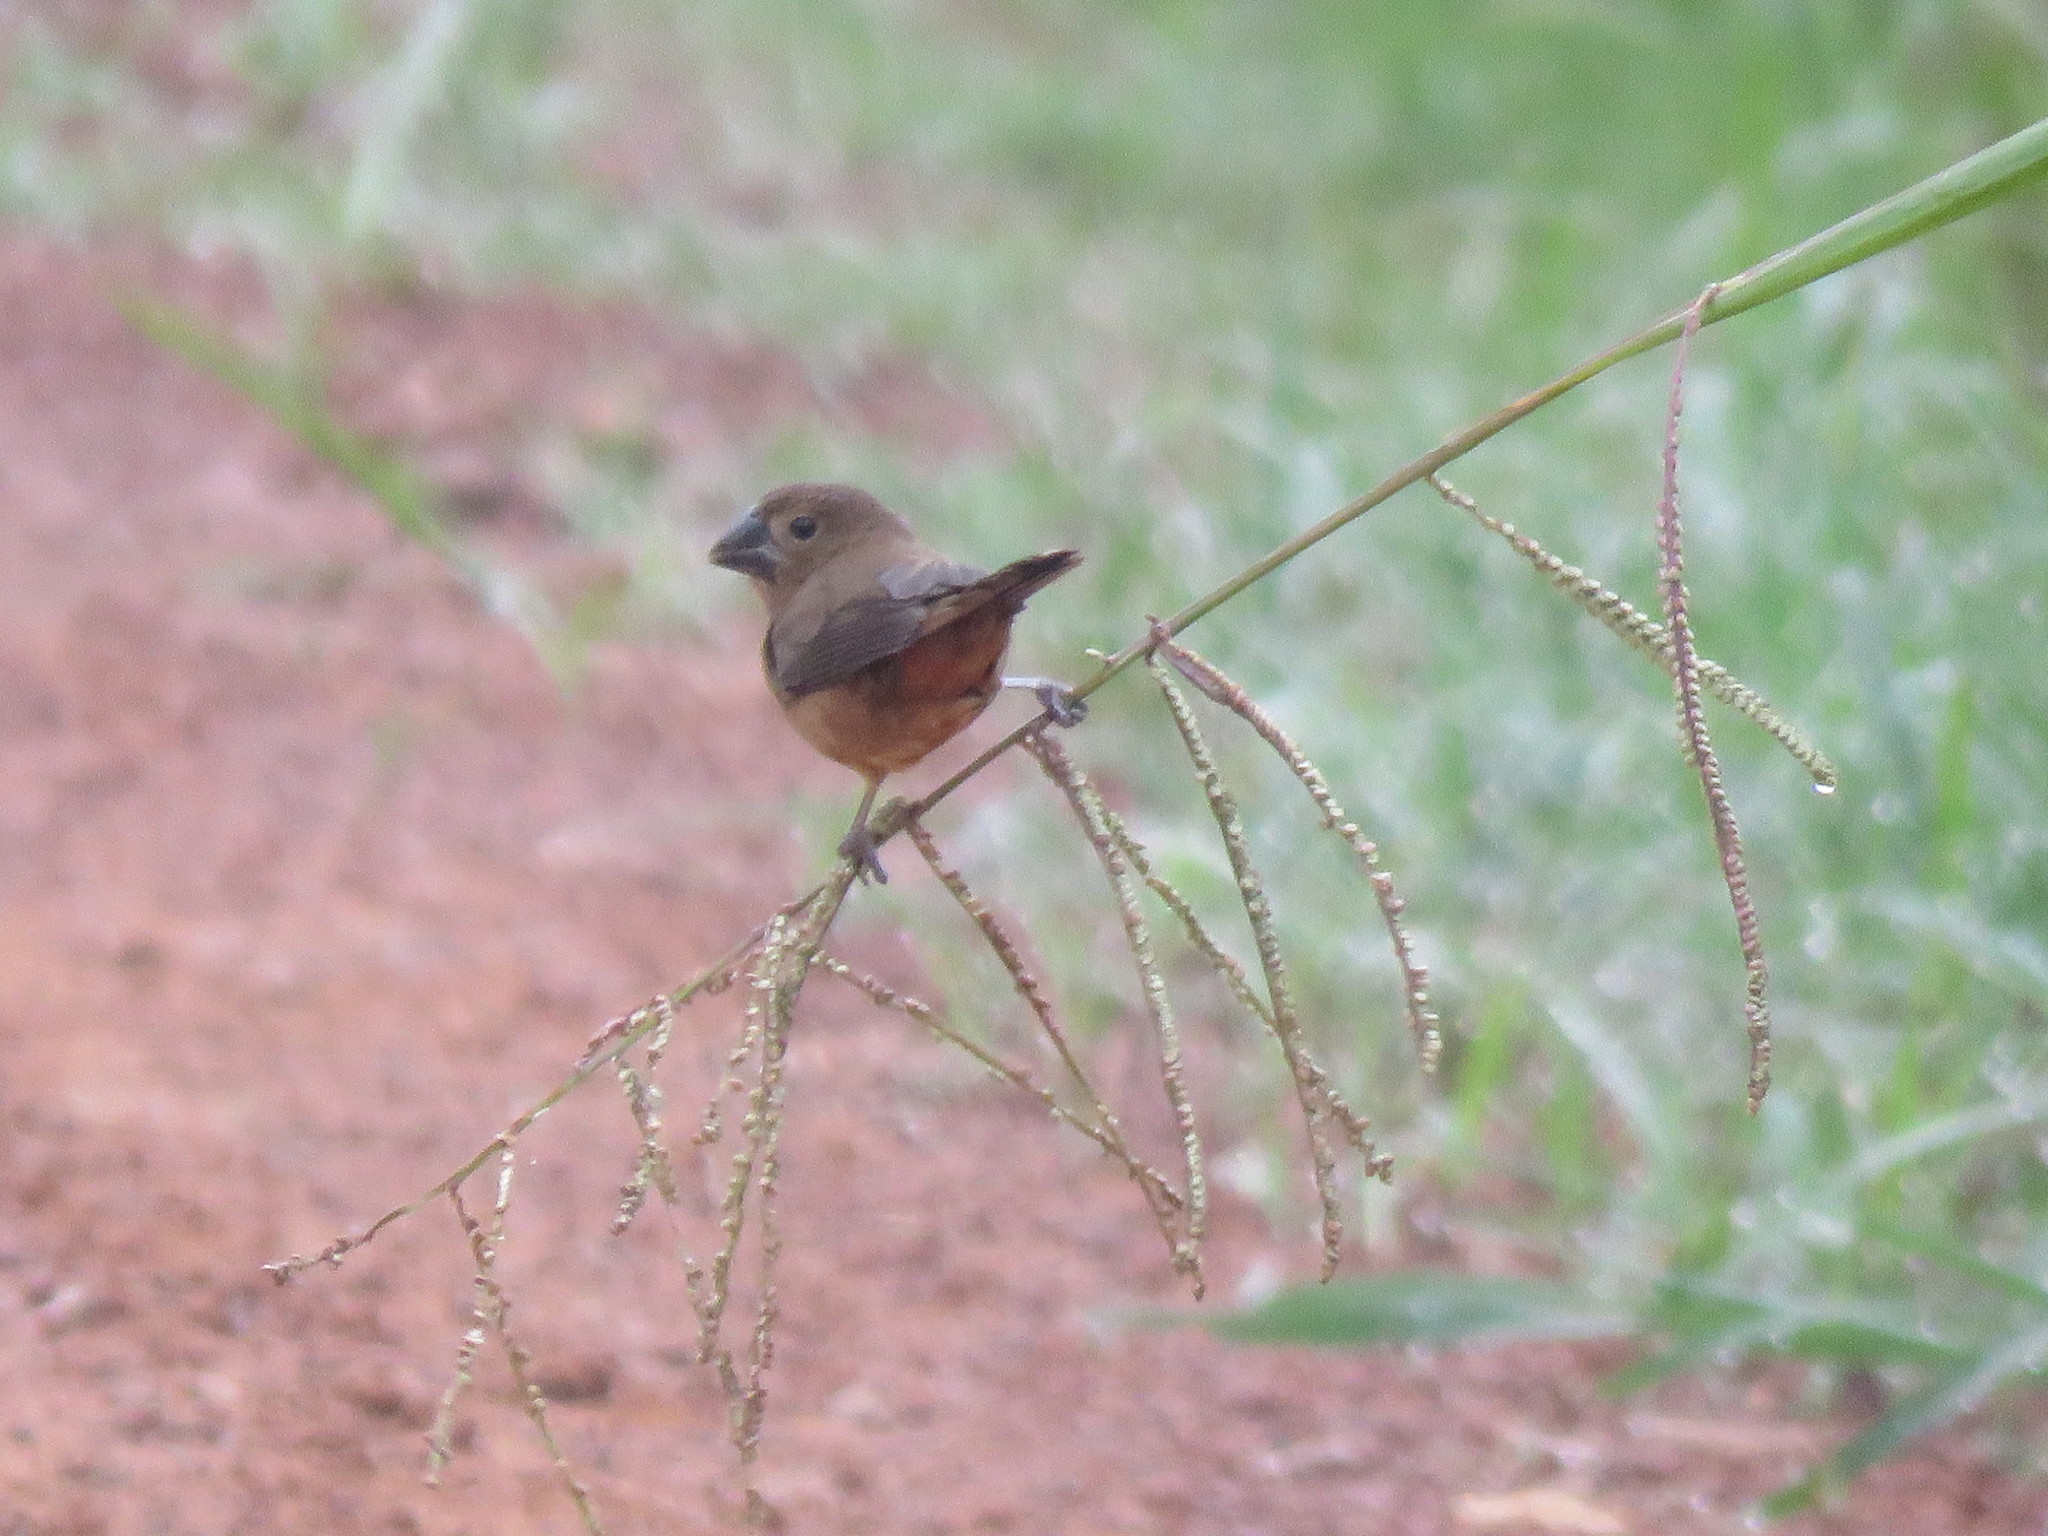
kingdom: Animalia
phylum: Chordata
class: Aves
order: Passeriformes
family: Thraupidae
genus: Sporophila
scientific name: Sporophila angolensis
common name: Chestnut-bellied seed-finch
